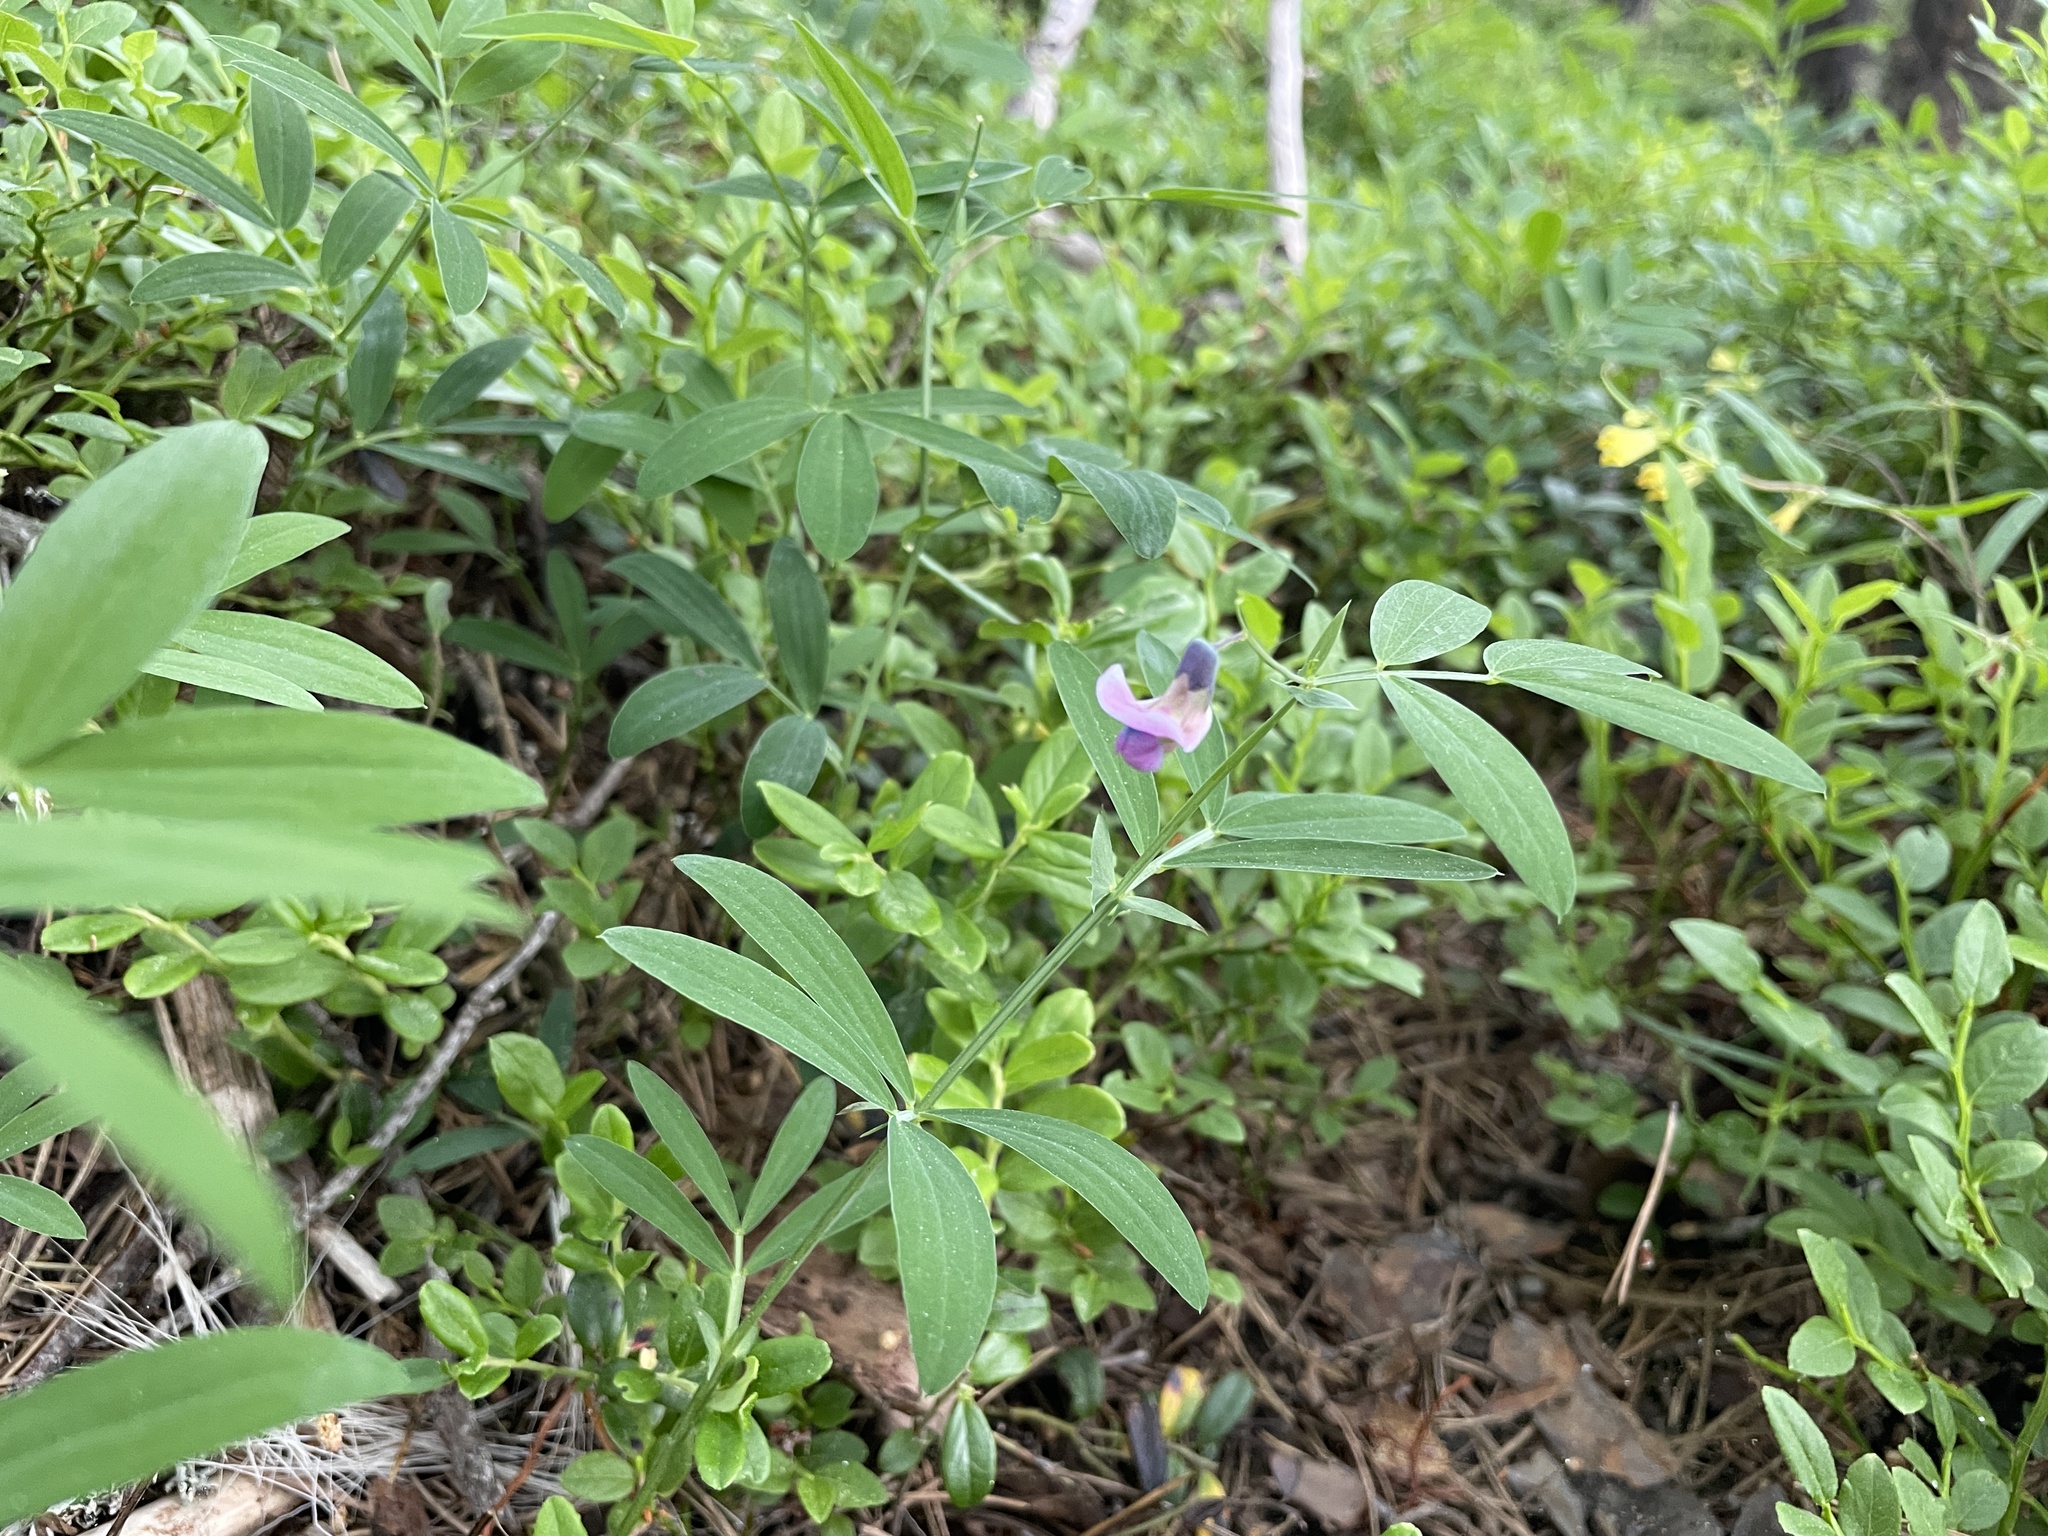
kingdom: Plantae
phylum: Tracheophyta
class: Magnoliopsida
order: Fabales
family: Fabaceae
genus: Lathyrus
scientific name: Lathyrus linifolius
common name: Bitter-vetch
